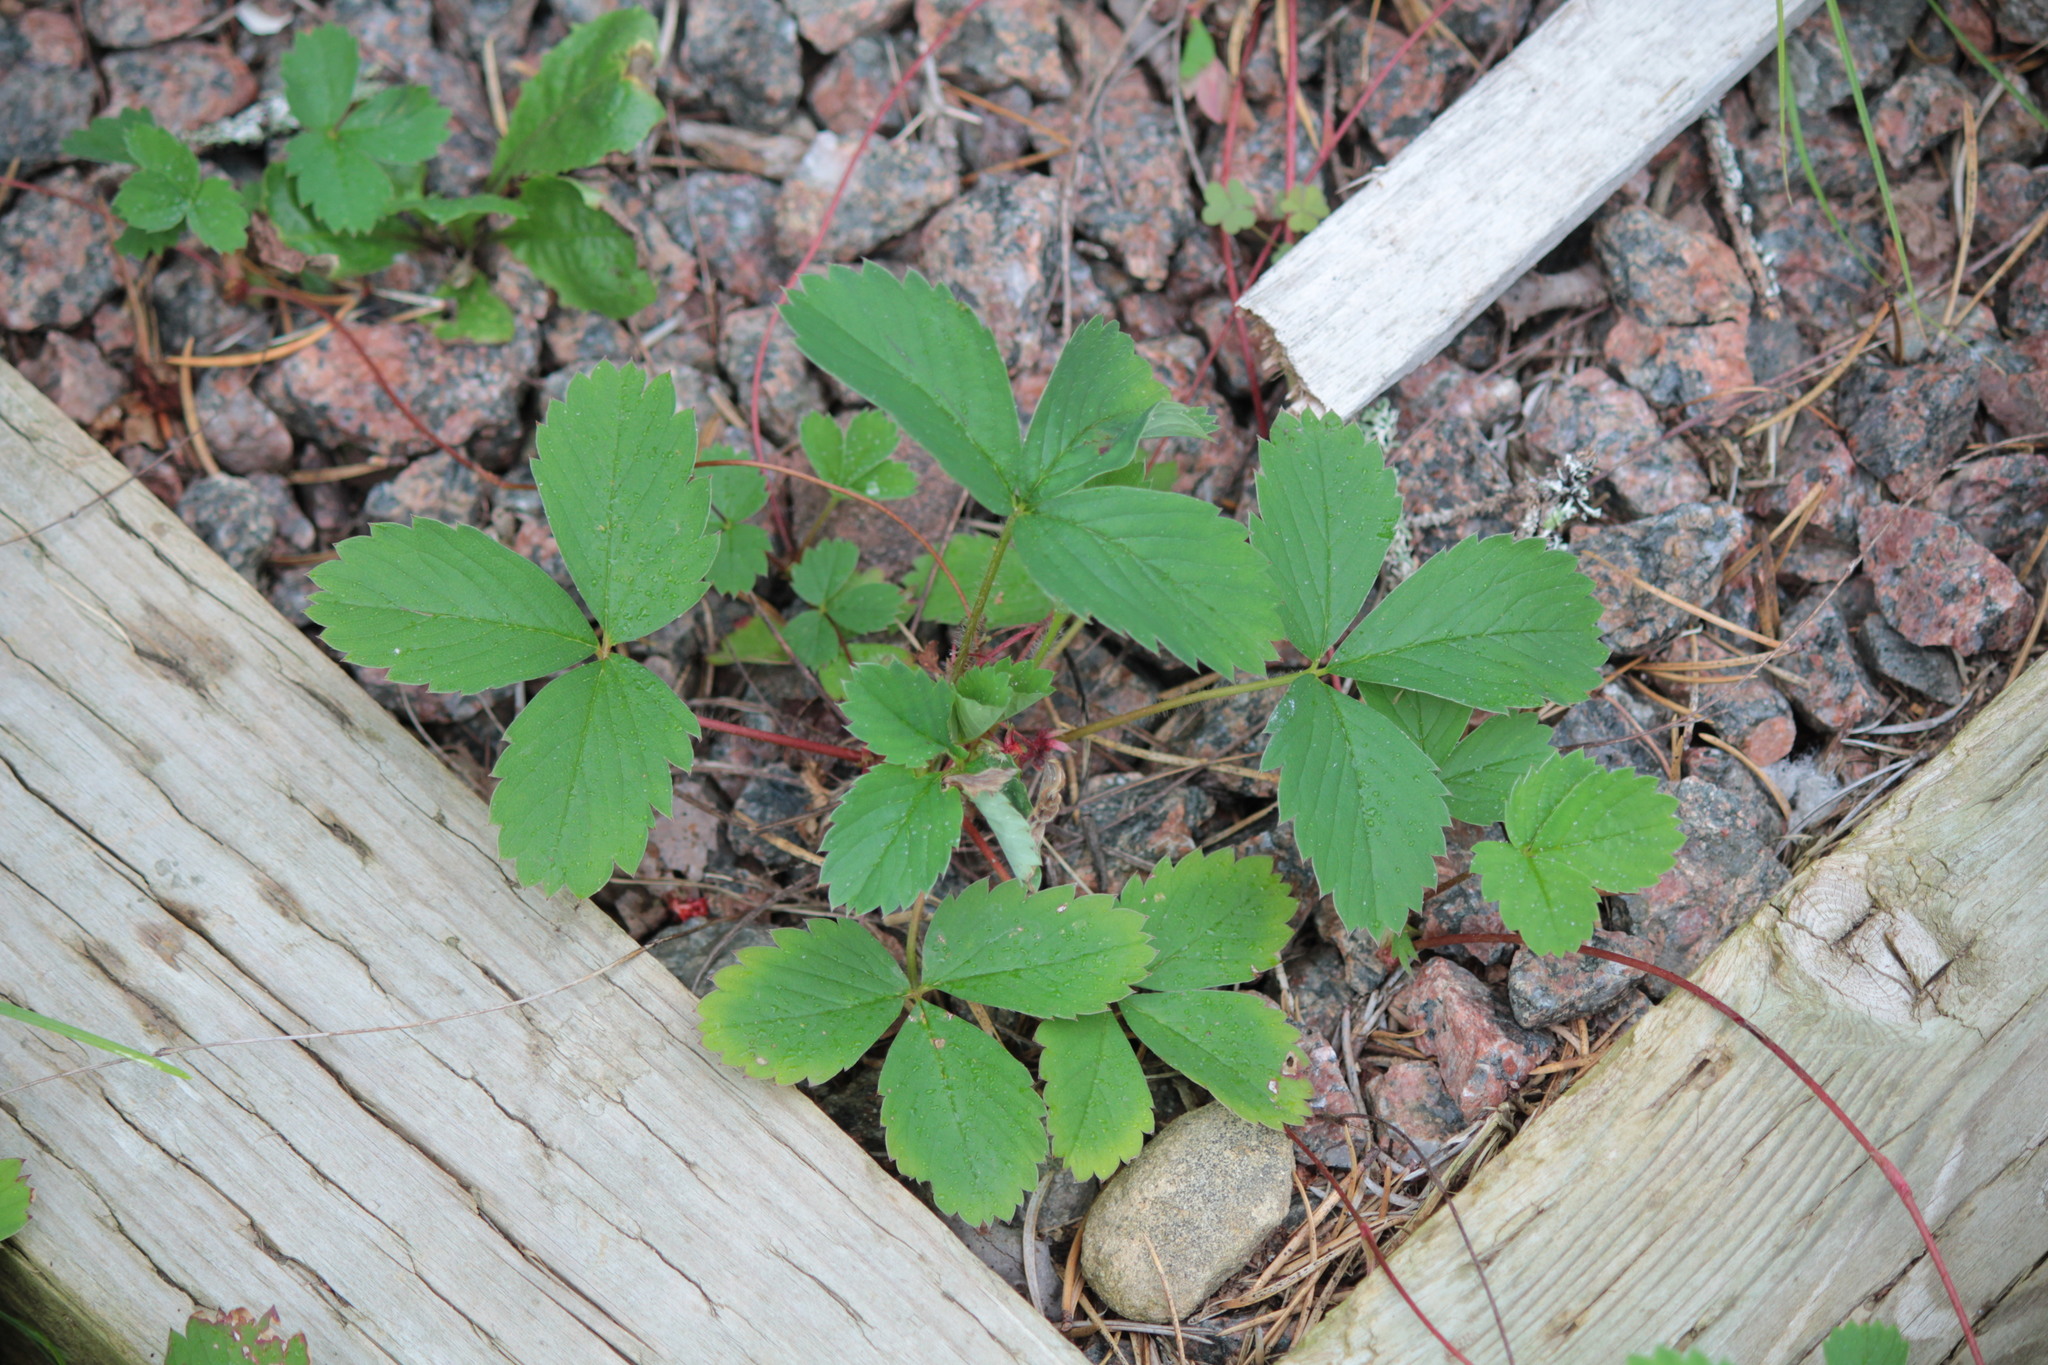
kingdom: Plantae
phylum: Tracheophyta
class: Magnoliopsida
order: Rosales
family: Rosaceae
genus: Fragaria
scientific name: Fragaria virginiana
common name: Thickleaved wild strawberry
